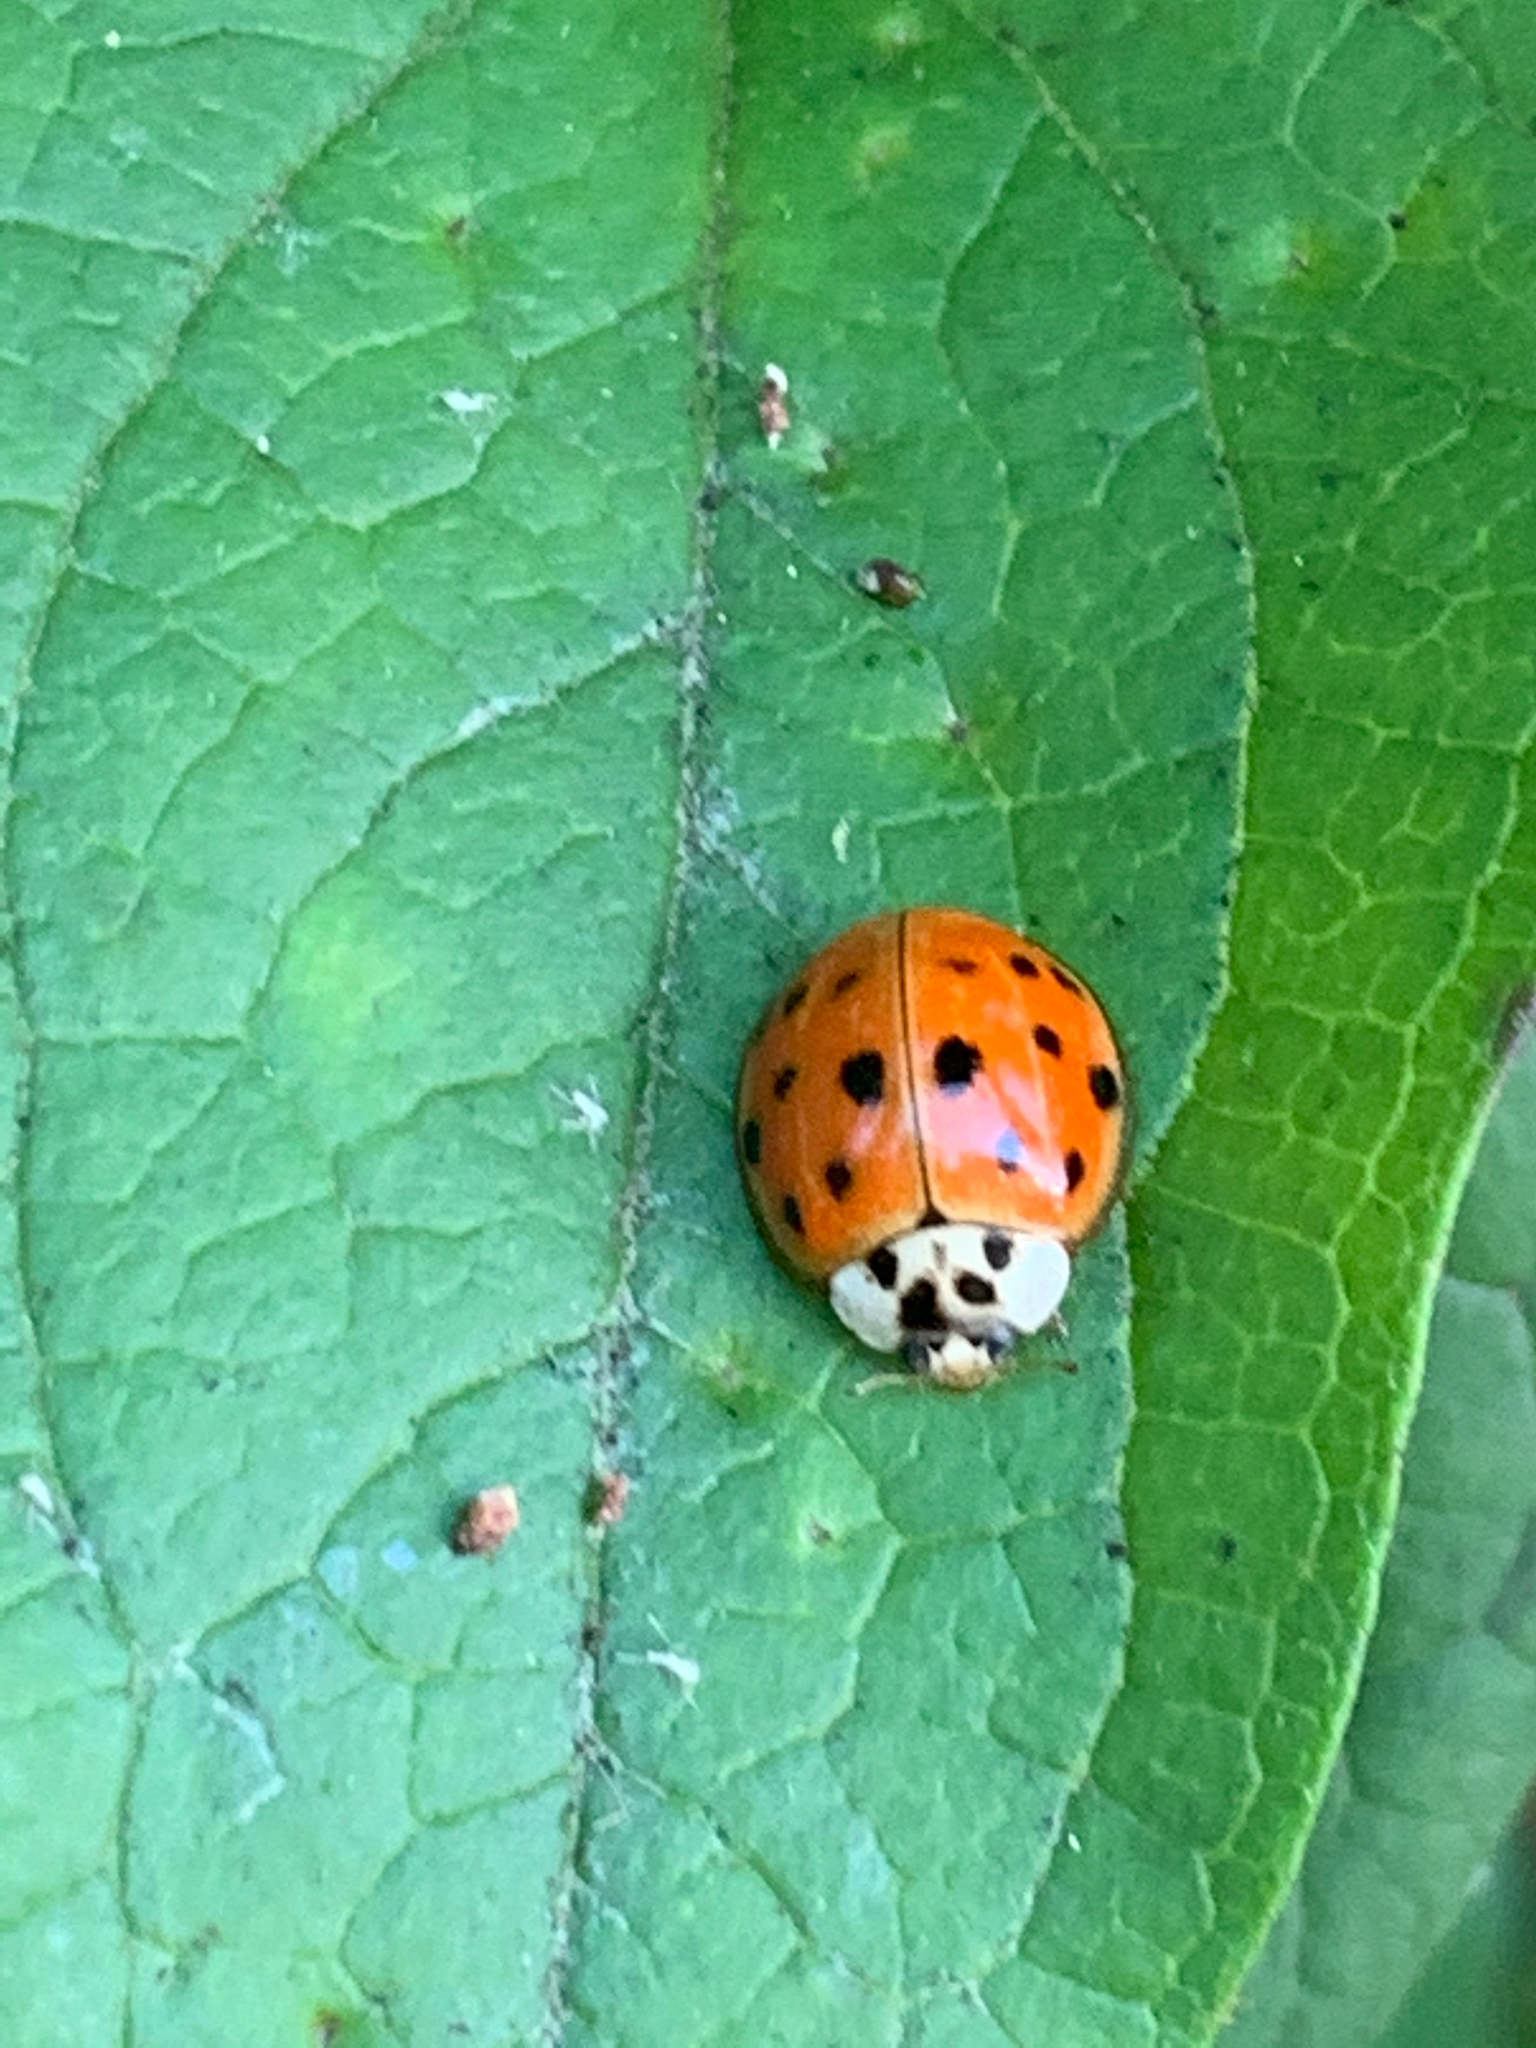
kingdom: Animalia
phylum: Arthropoda
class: Insecta
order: Coleoptera
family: Coccinellidae
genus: Harmonia
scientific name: Harmonia axyridis
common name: Harlequin ladybird
